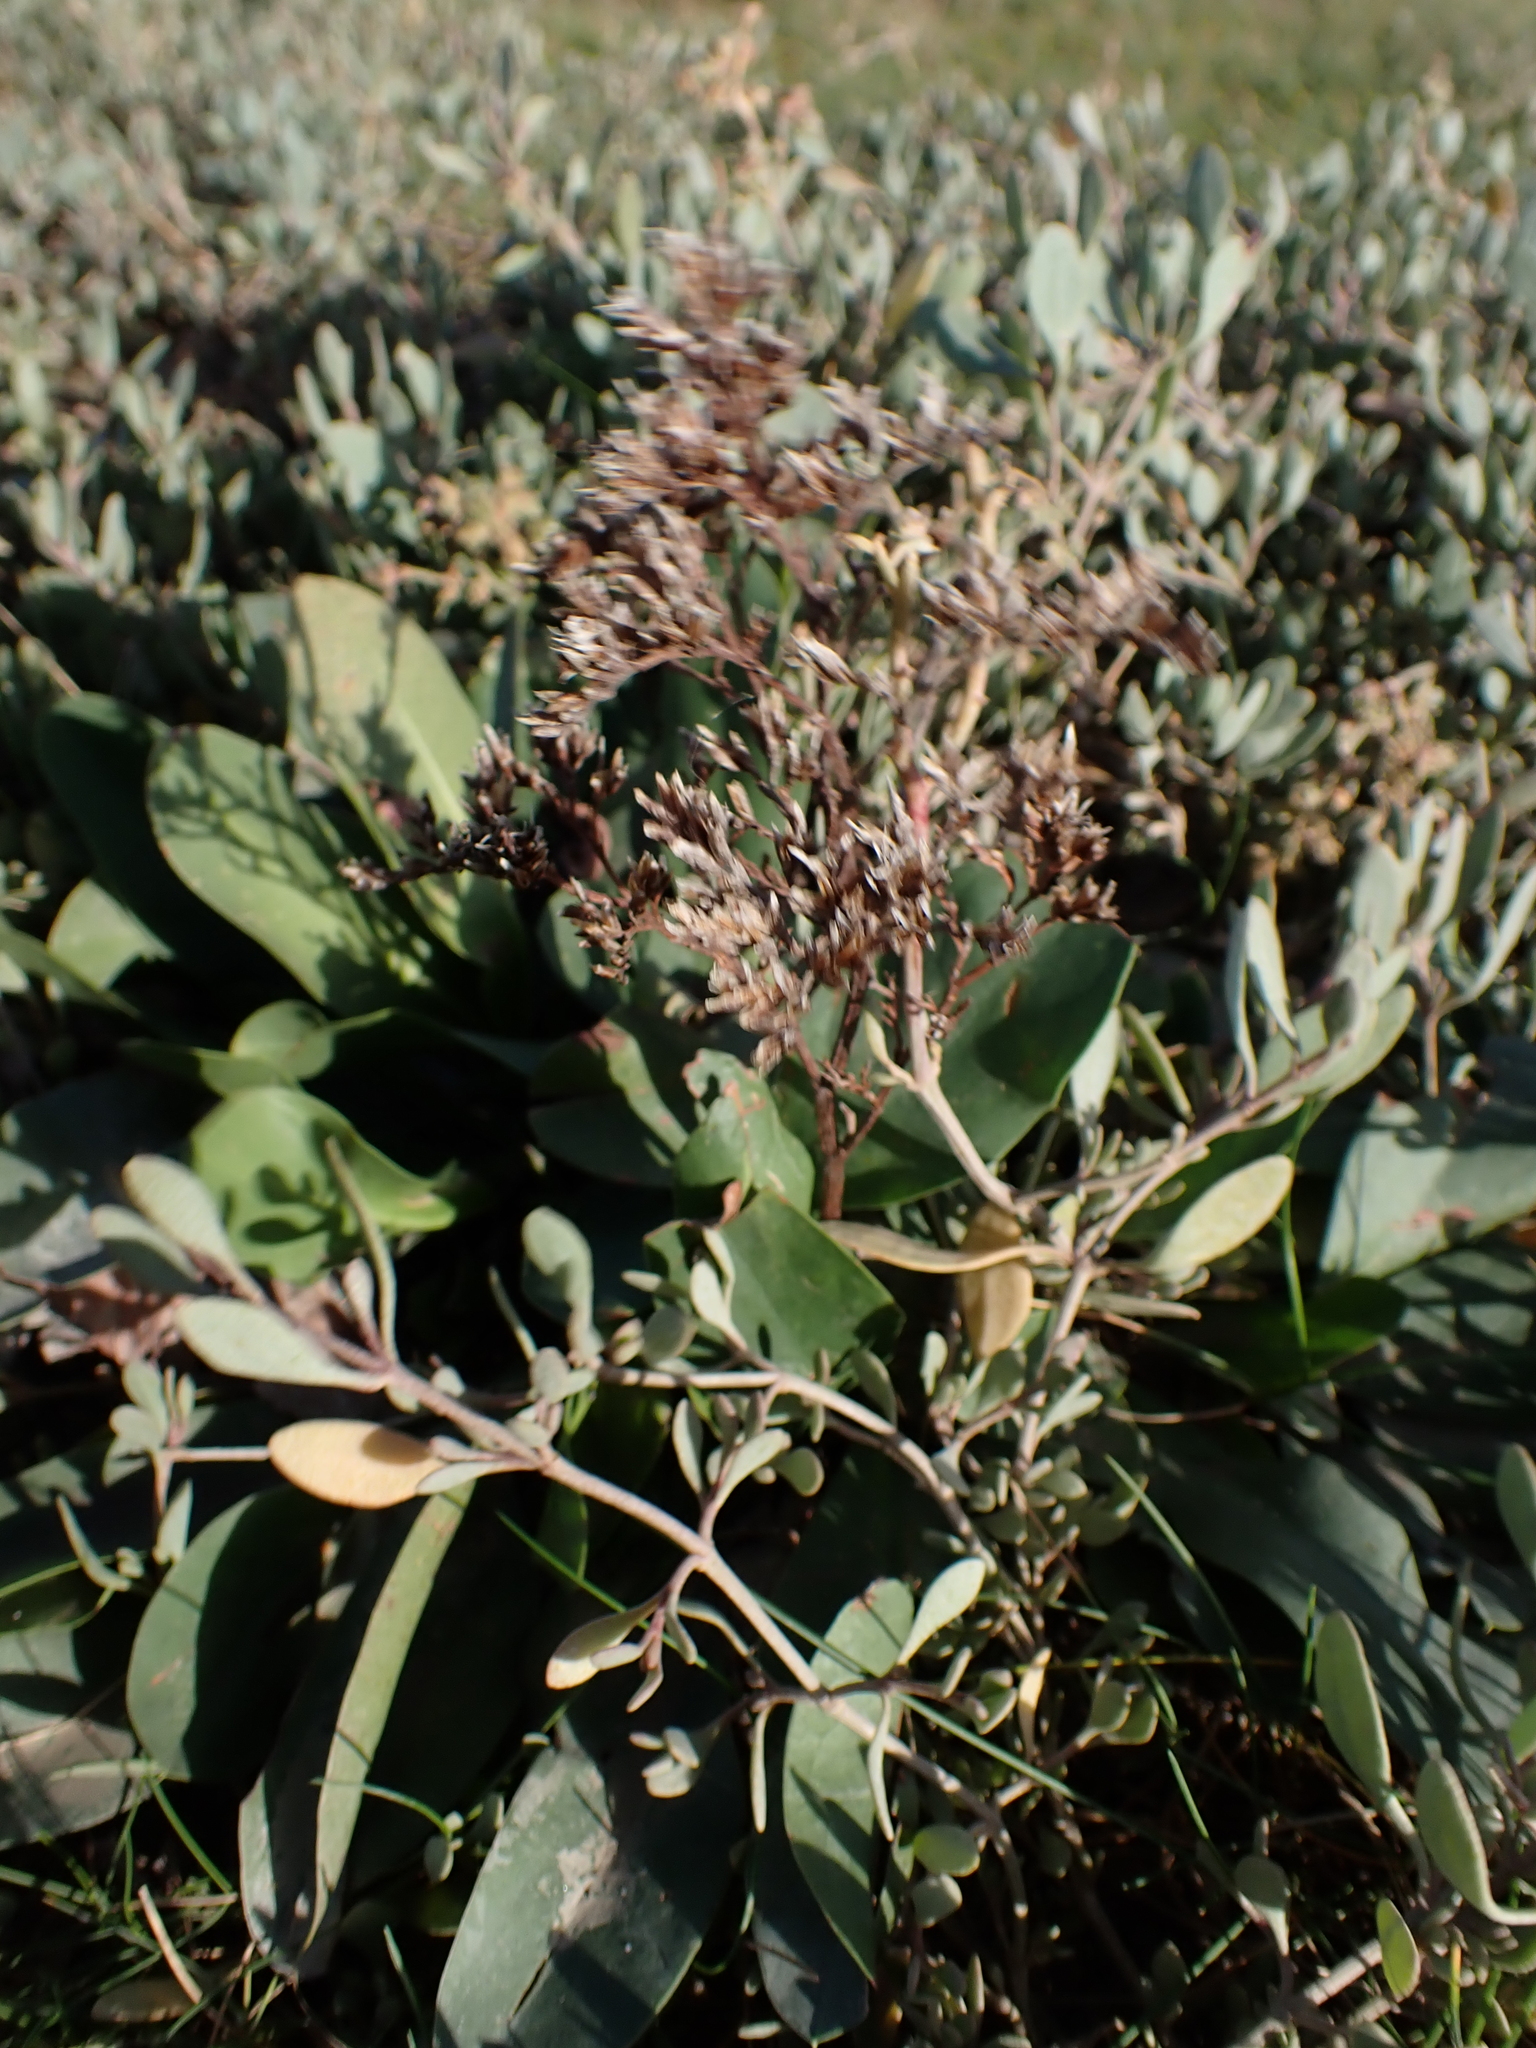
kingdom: Plantae
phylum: Tracheophyta
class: Magnoliopsida
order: Caryophyllales
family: Plumbaginaceae
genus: Limonium
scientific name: Limonium vulgare
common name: Common sea-lavender
